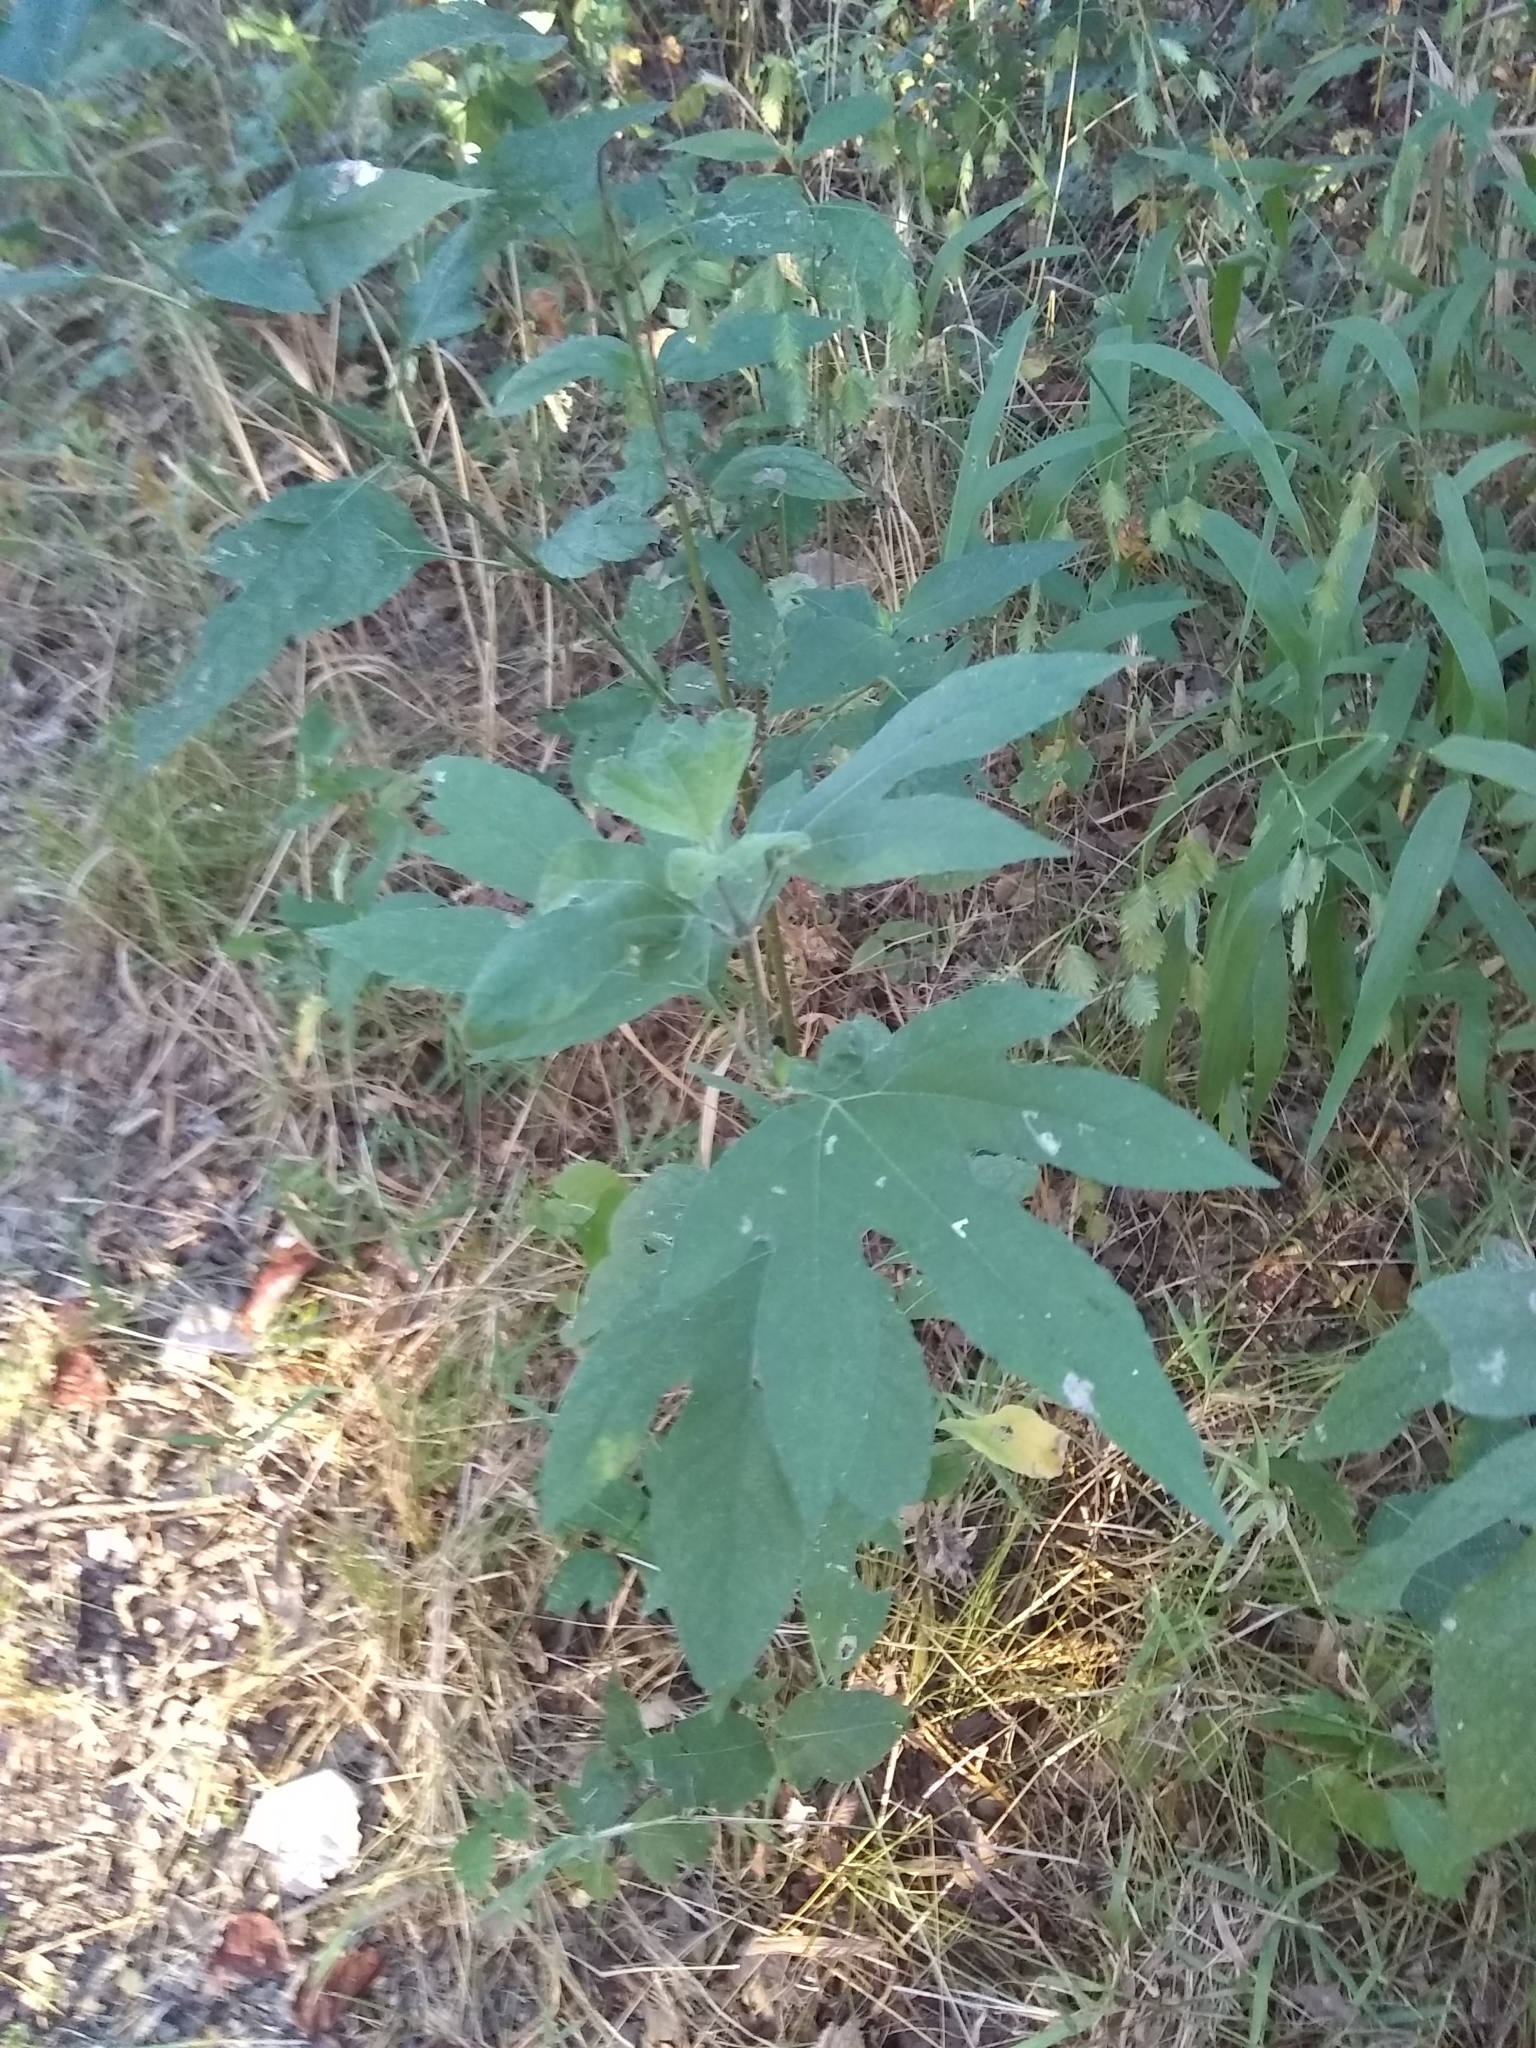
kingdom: Plantae
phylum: Tracheophyta
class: Magnoliopsida
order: Asterales
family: Asteraceae
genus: Ambrosia
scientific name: Ambrosia trifida
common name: Giant ragweed
